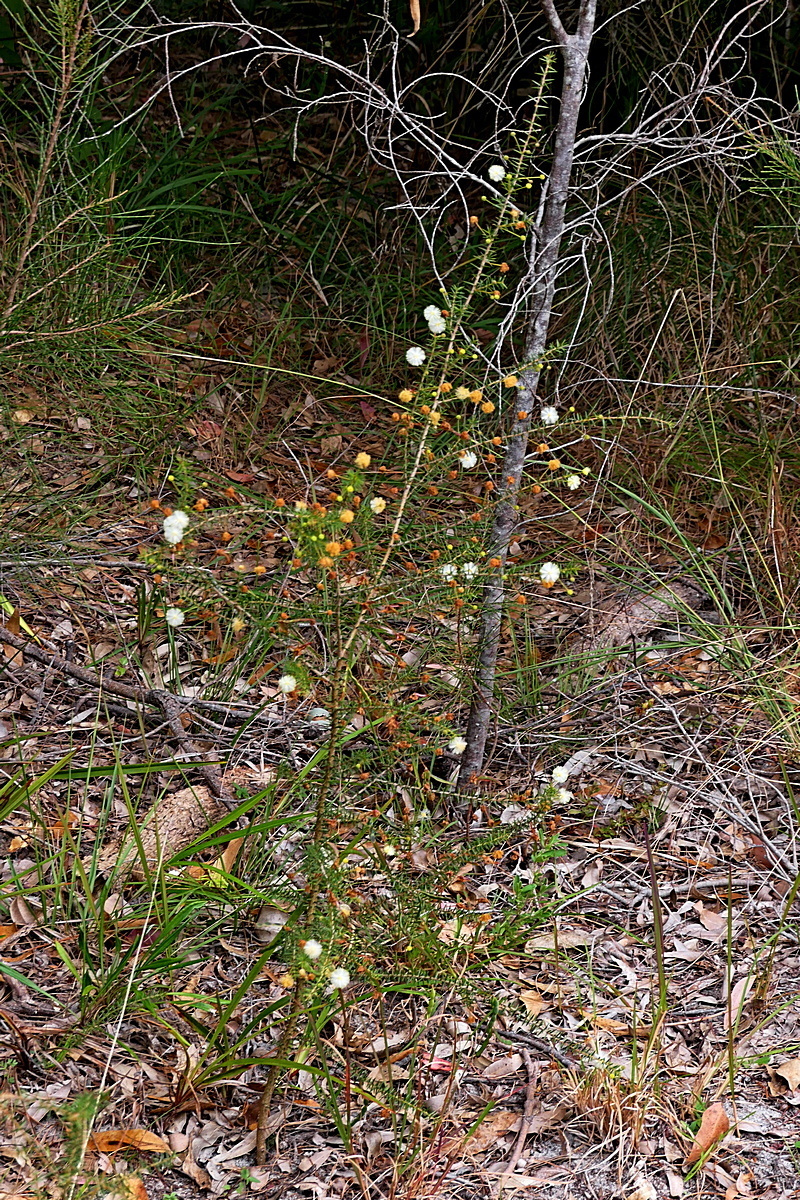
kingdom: Plantae
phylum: Tracheophyta
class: Magnoliopsida
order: Fabales
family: Fabaceae
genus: Acacia
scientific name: Acacia ulicifolia
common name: Juniper wattle
